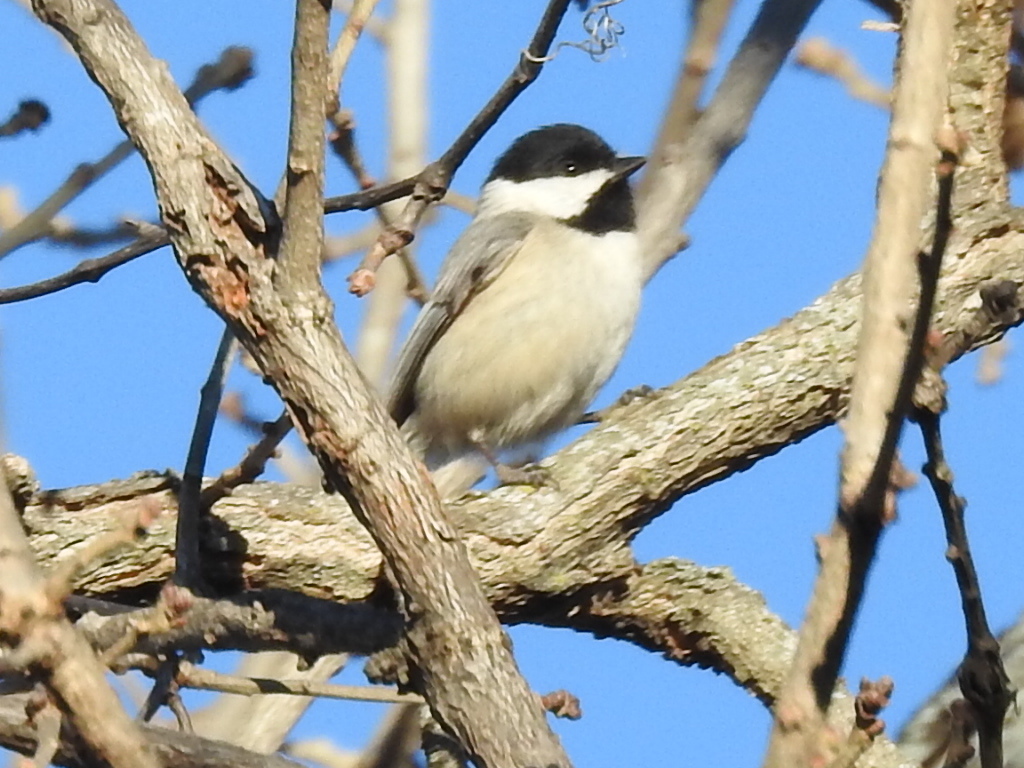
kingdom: Animalia
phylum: Chordata
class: Aves
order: Passeriformes
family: Paridae
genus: Poecile
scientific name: Poecile carolinensis
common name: Carolina chickadee
